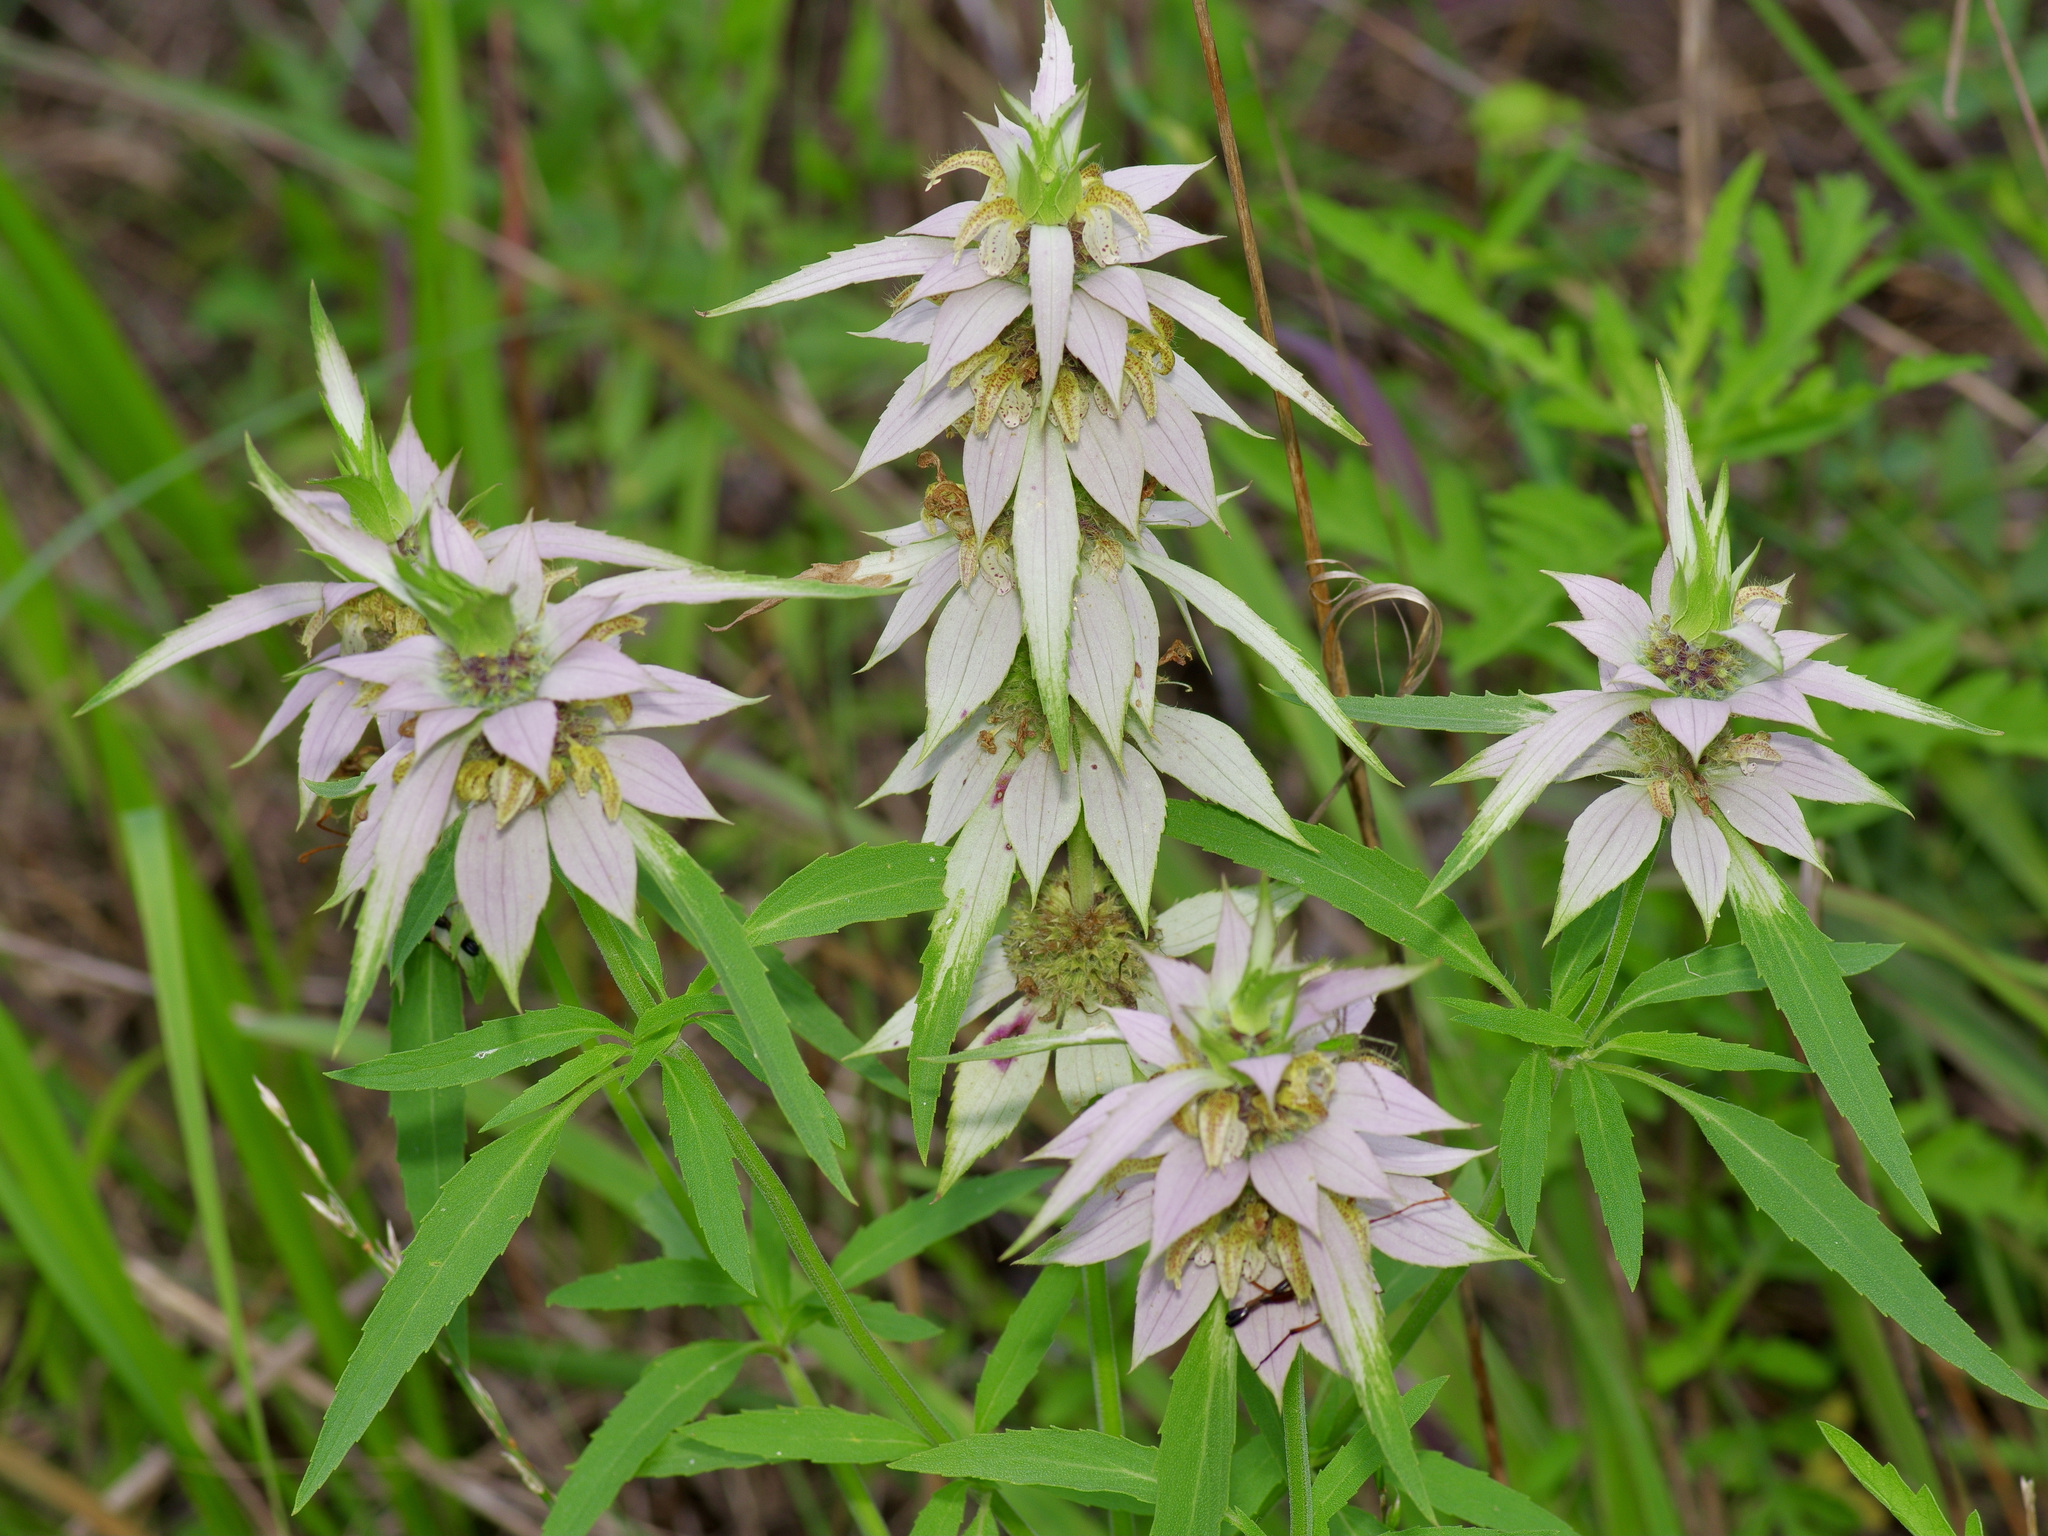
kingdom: Plantae
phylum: Tracheophyta
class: Magnoliopsida
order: Lamiales
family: Lamiaceae
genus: Monarda
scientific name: Monarda punctata
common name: Dotted monarda
